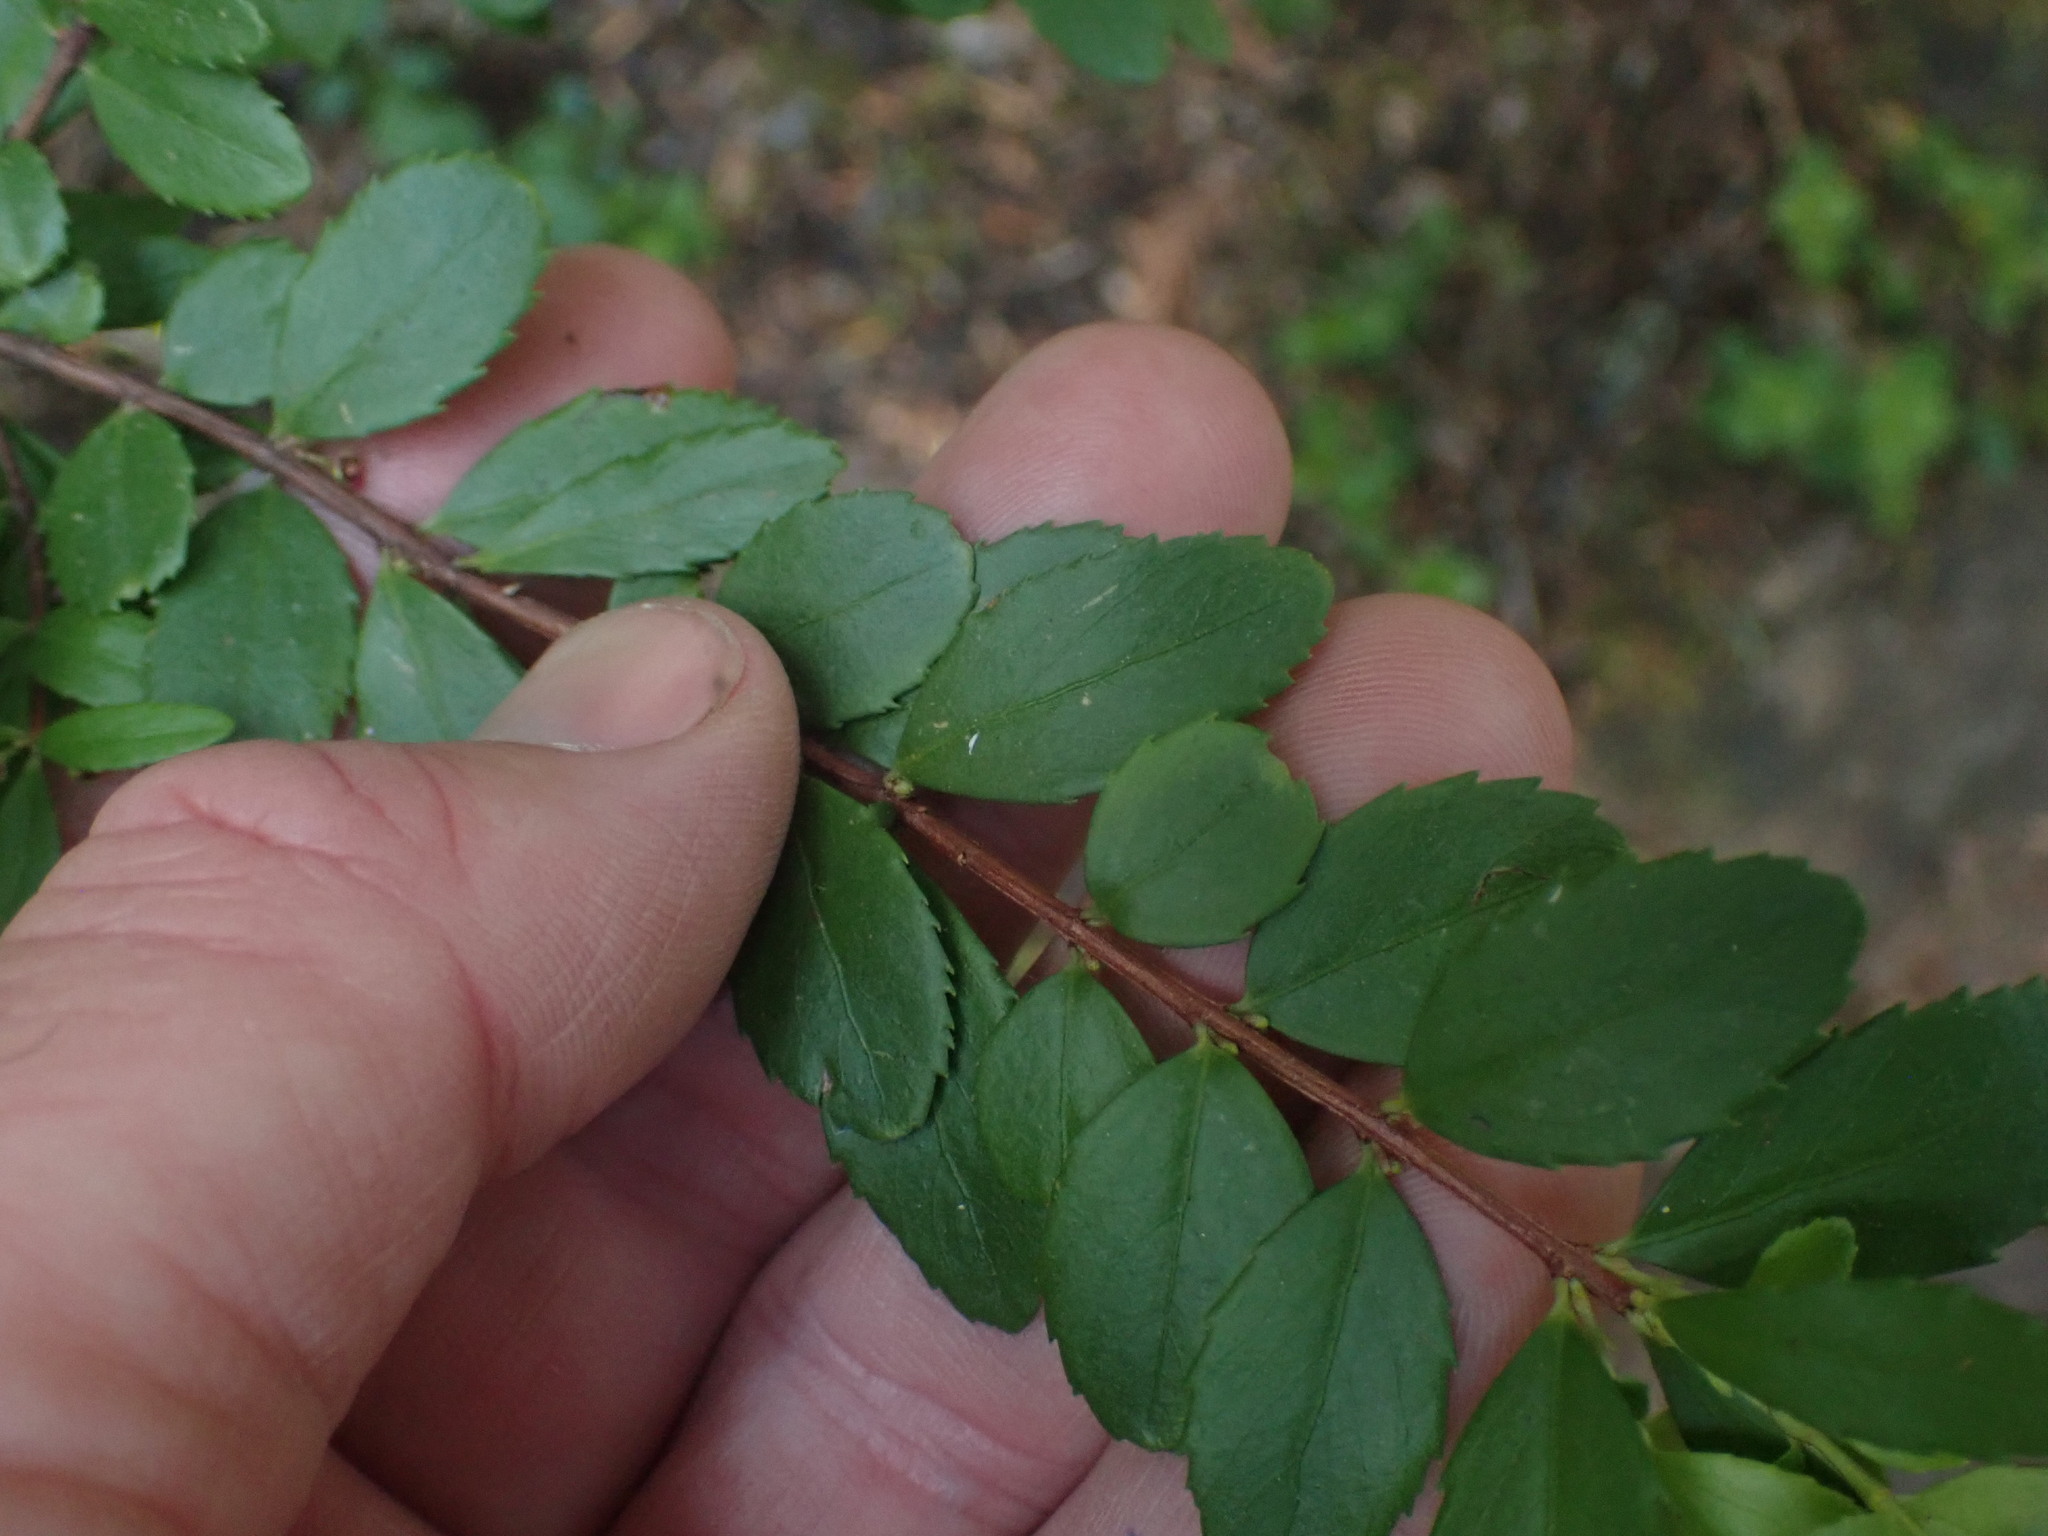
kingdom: Plantae
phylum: Tracheophyta
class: Magnoliopsida
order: Celastrales
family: Celastraceae
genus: Paxistima
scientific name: Paxistima myrsinites
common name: Mountain-lover
